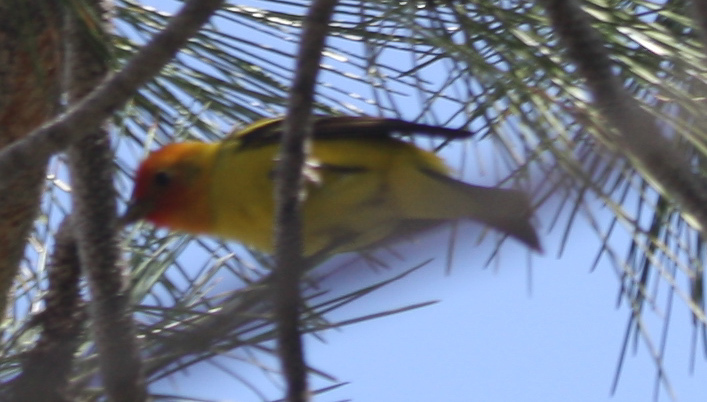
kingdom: Animalia
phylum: Chordata
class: Aves
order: Passeriformes
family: Cardinalidae
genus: Piranga
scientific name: Piranga ludoviciana
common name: Western tanager
